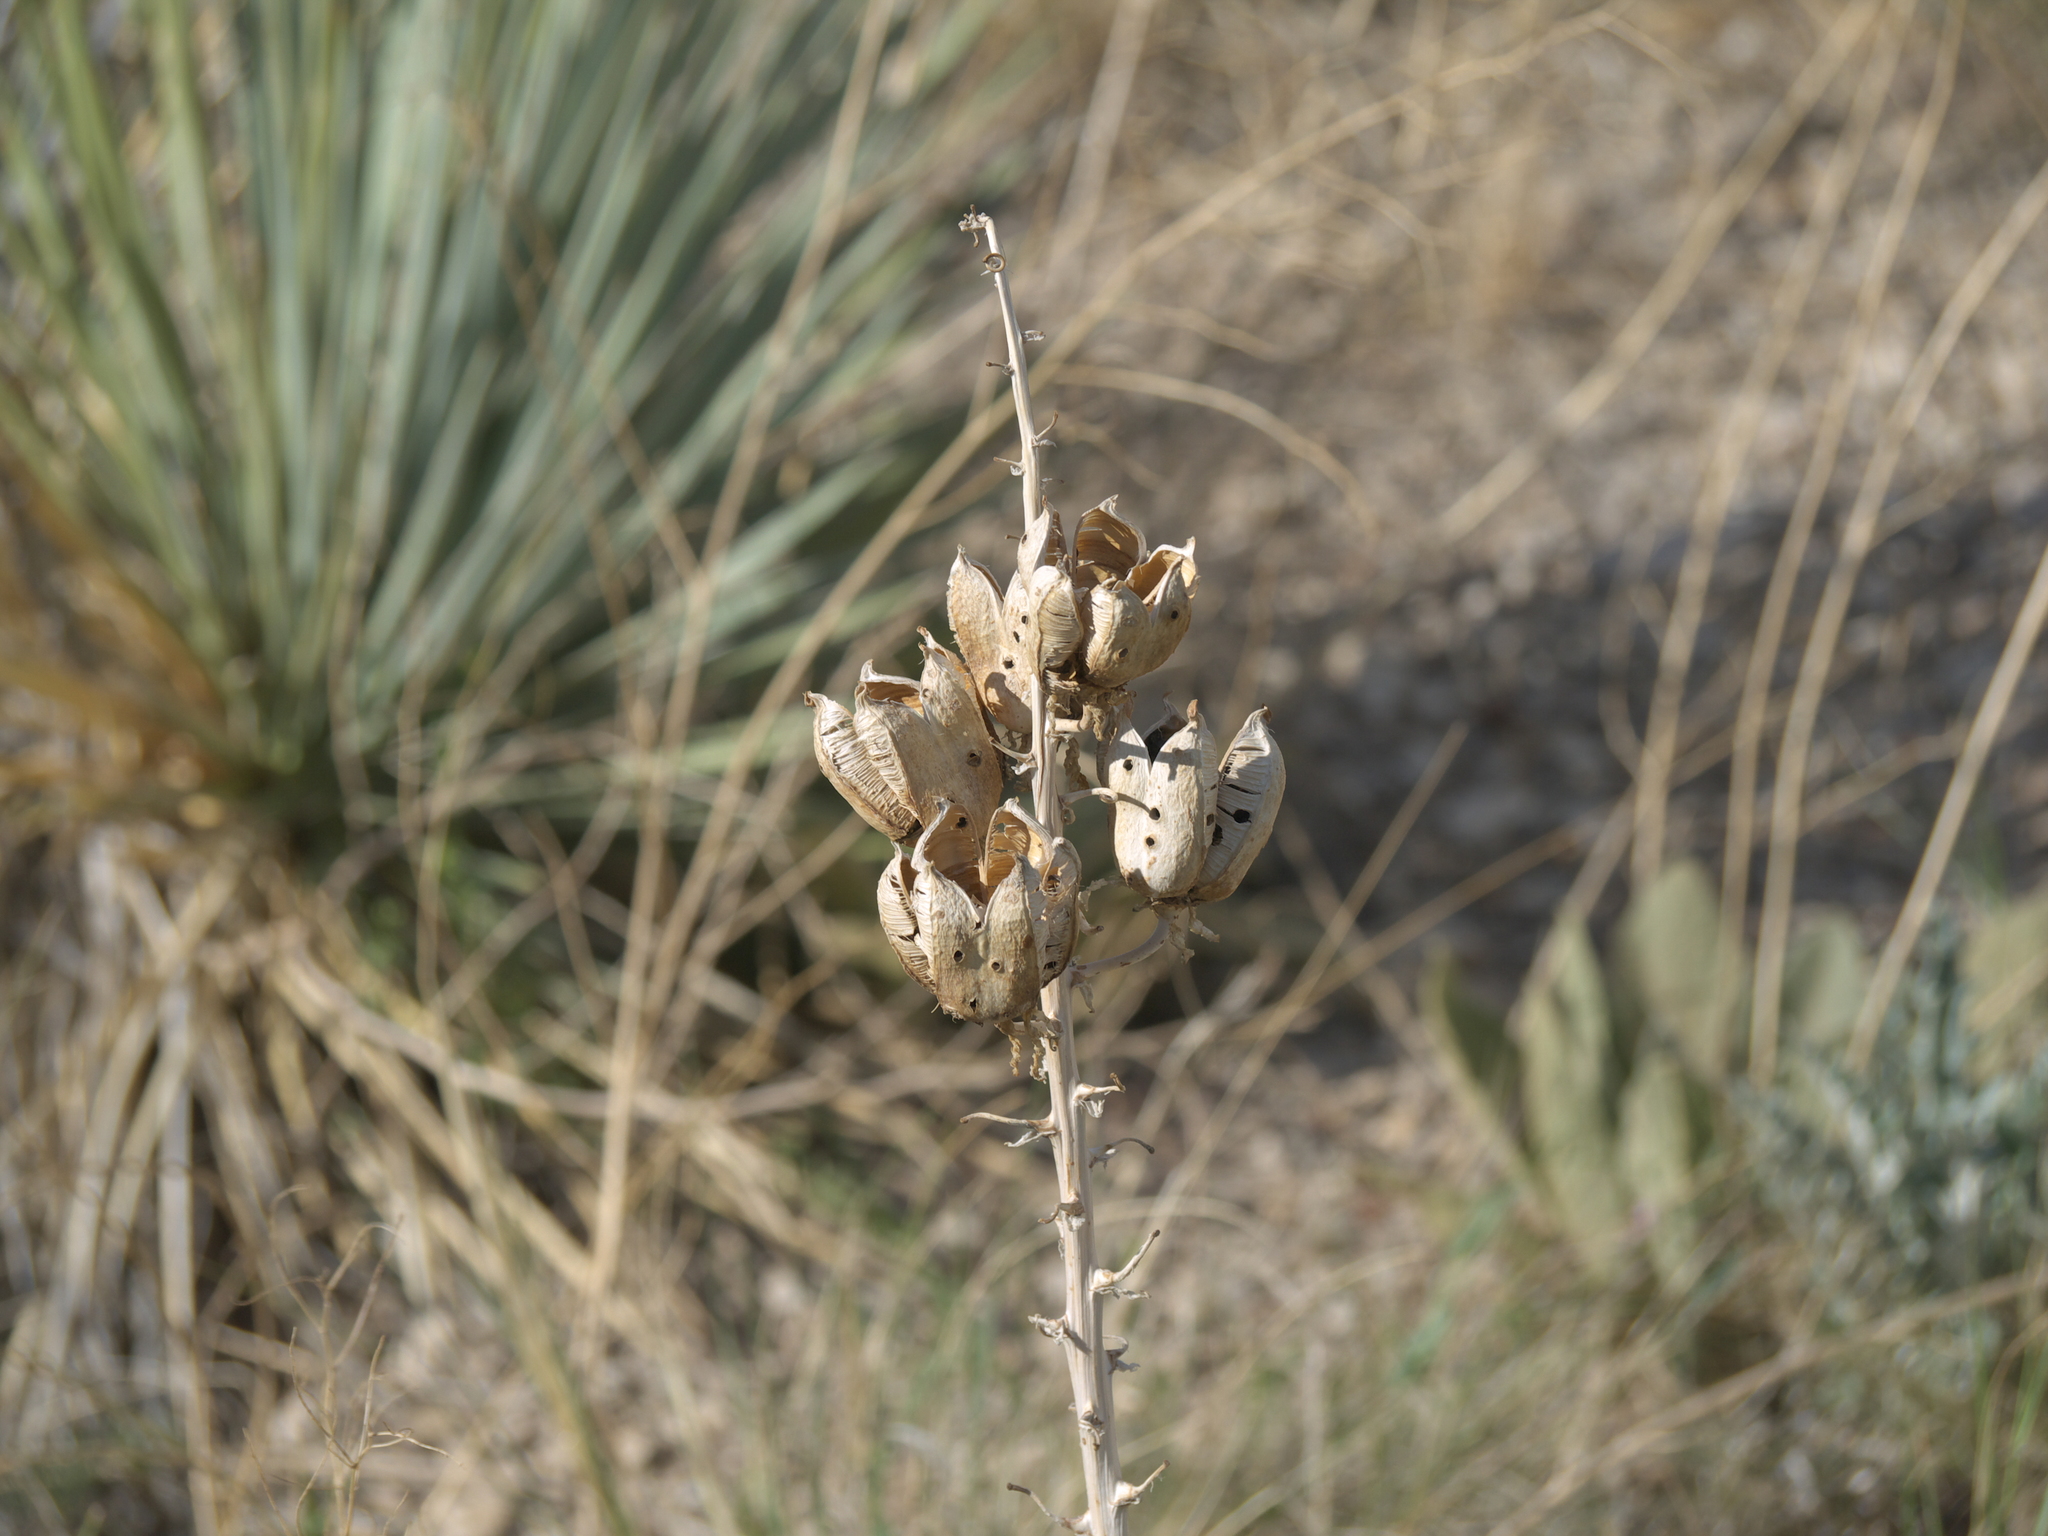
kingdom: Plantae
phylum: Tracheophyta
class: Liliopsida
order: Asparagales
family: Asparagaceae
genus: Yucca
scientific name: Yucca glauca
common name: Great plains yucca
